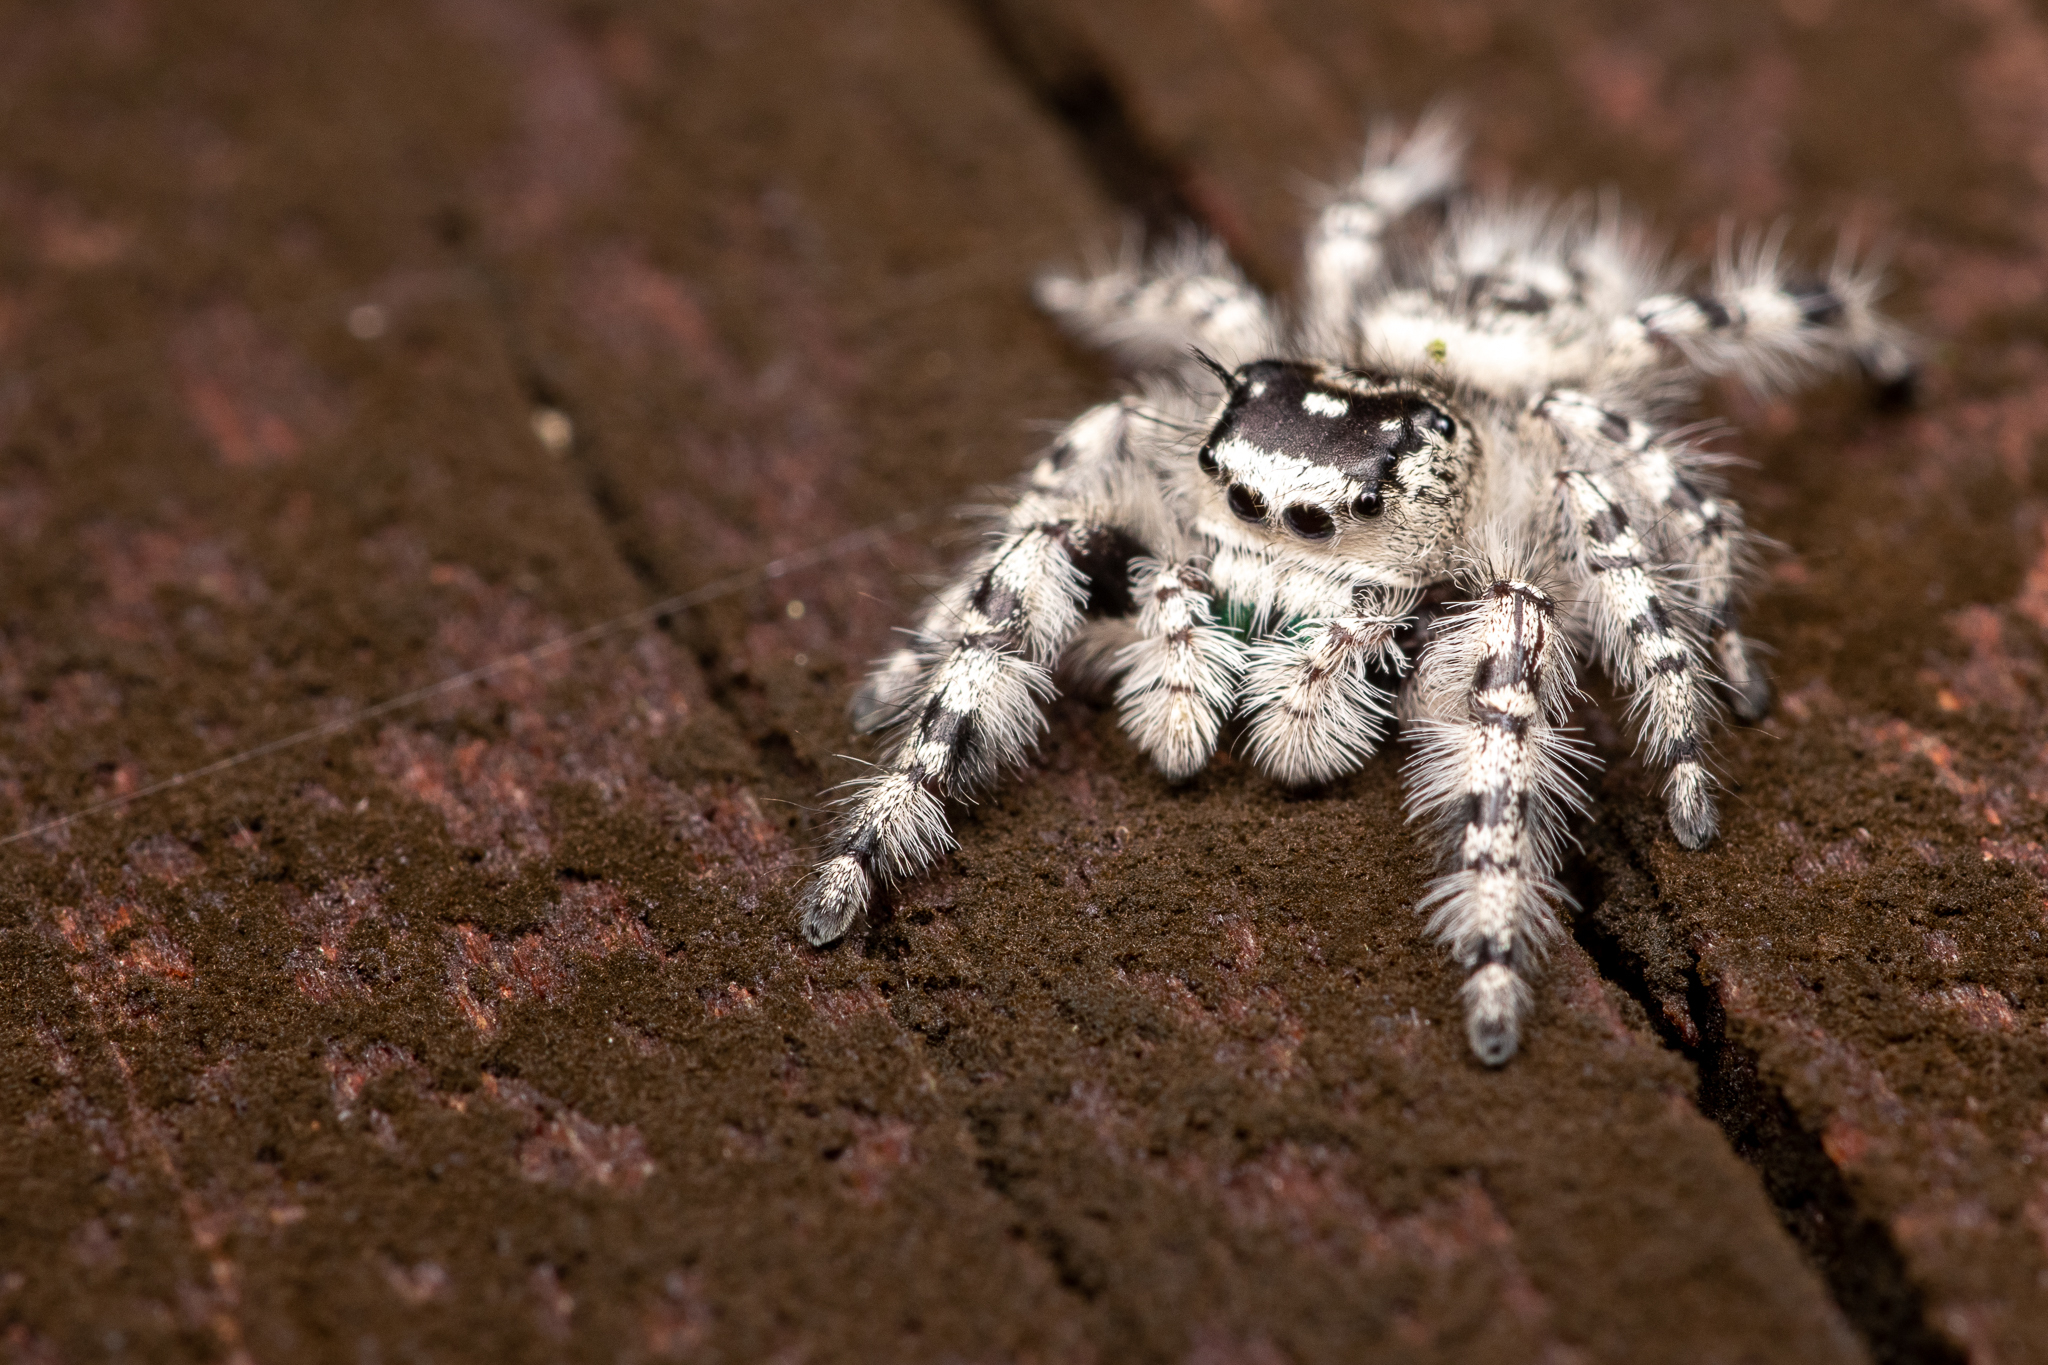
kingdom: Animalia
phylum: Arthropoda
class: Arachnida
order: Araneae
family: Salticidae
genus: Phidippus
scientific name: Phidippus otiosus
